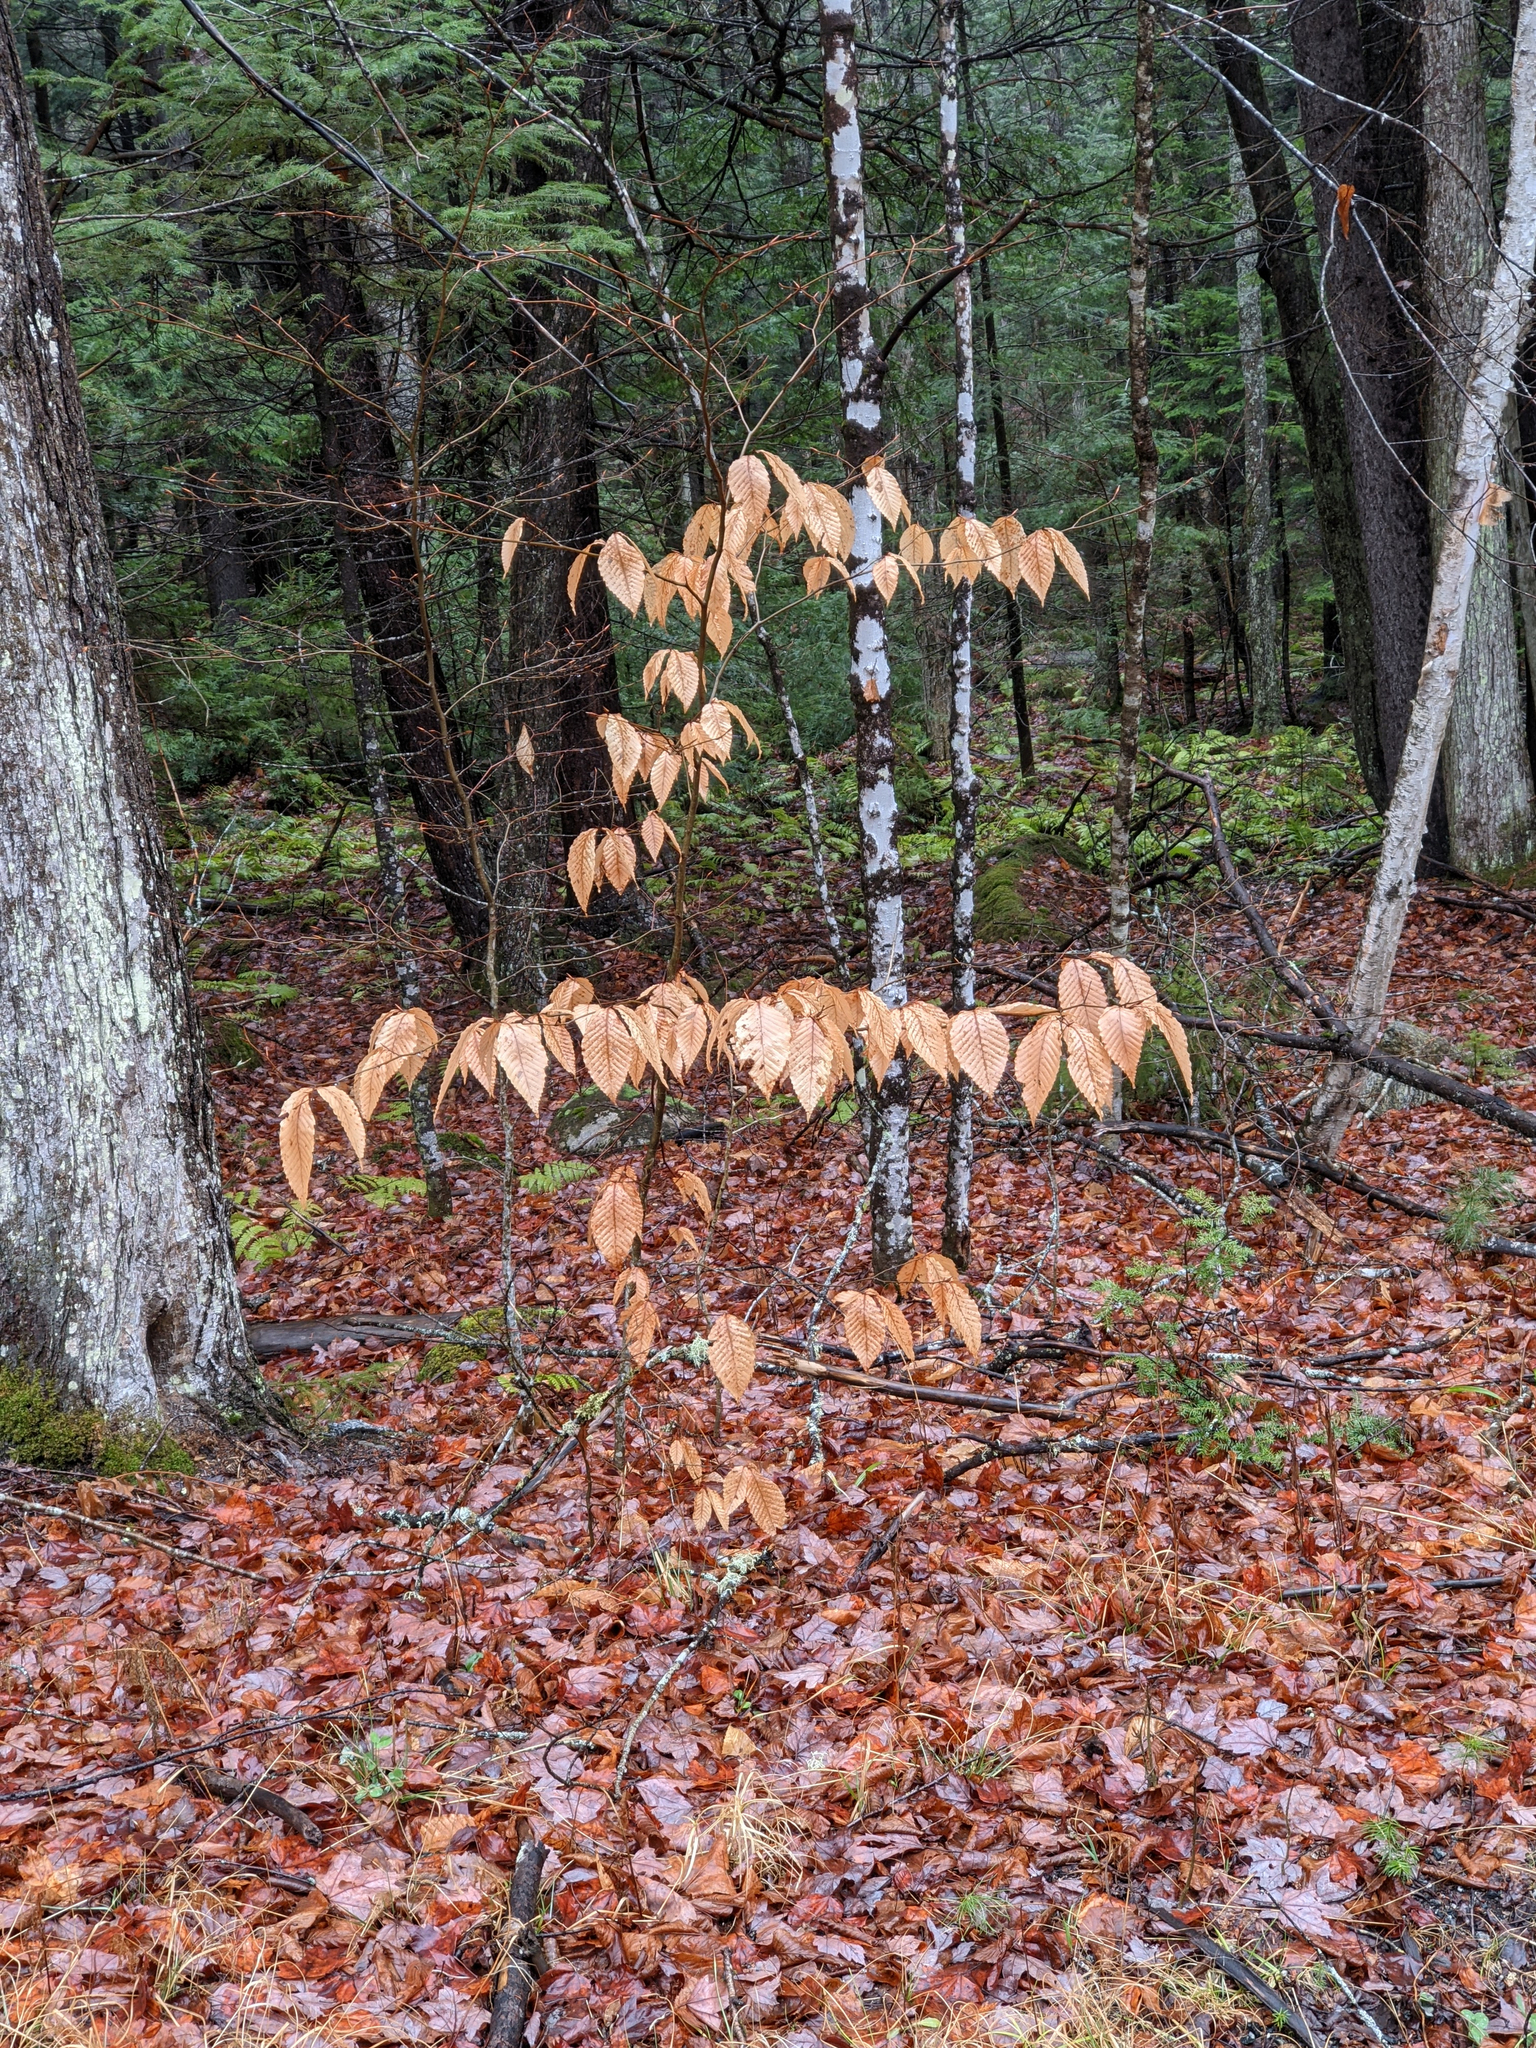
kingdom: Plantae
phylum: Tracheophyta
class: Magnoliopsida
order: Fagales
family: Fagaceae
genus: Fagus
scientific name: Fagus grandifolia
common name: American beech
